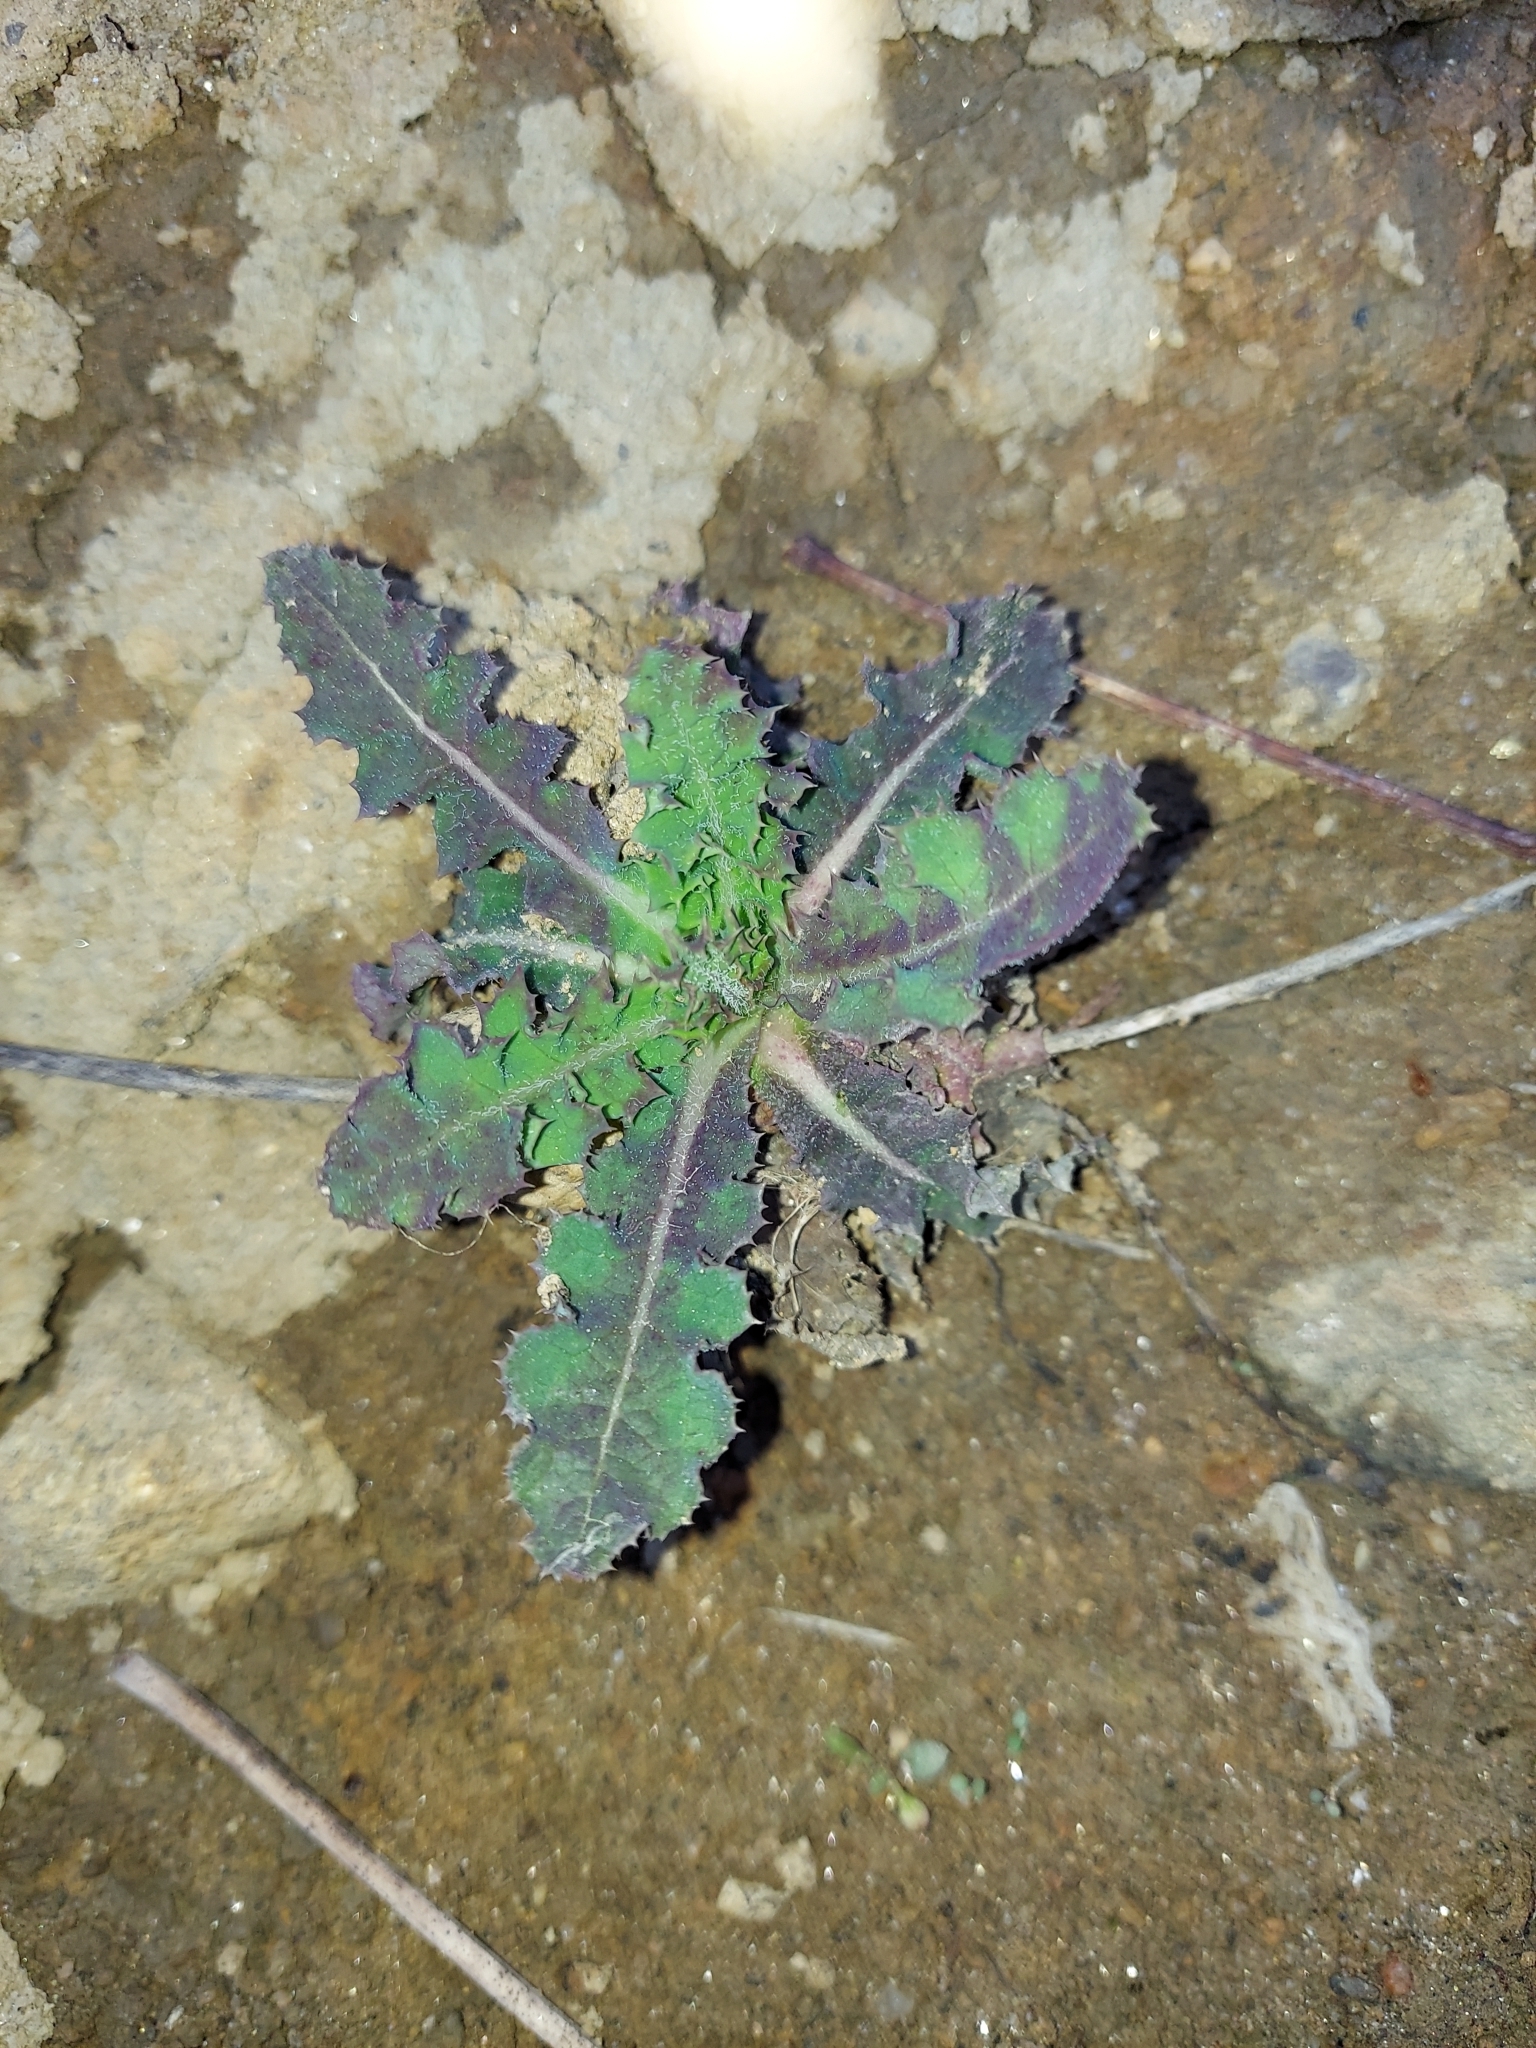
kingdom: Plantae
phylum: Tracheophyta
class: Magnoliopsida
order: Asterales
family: Asteraceae
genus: Sonchus
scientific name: Sonchus asper
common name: Prickly sow-thistle
